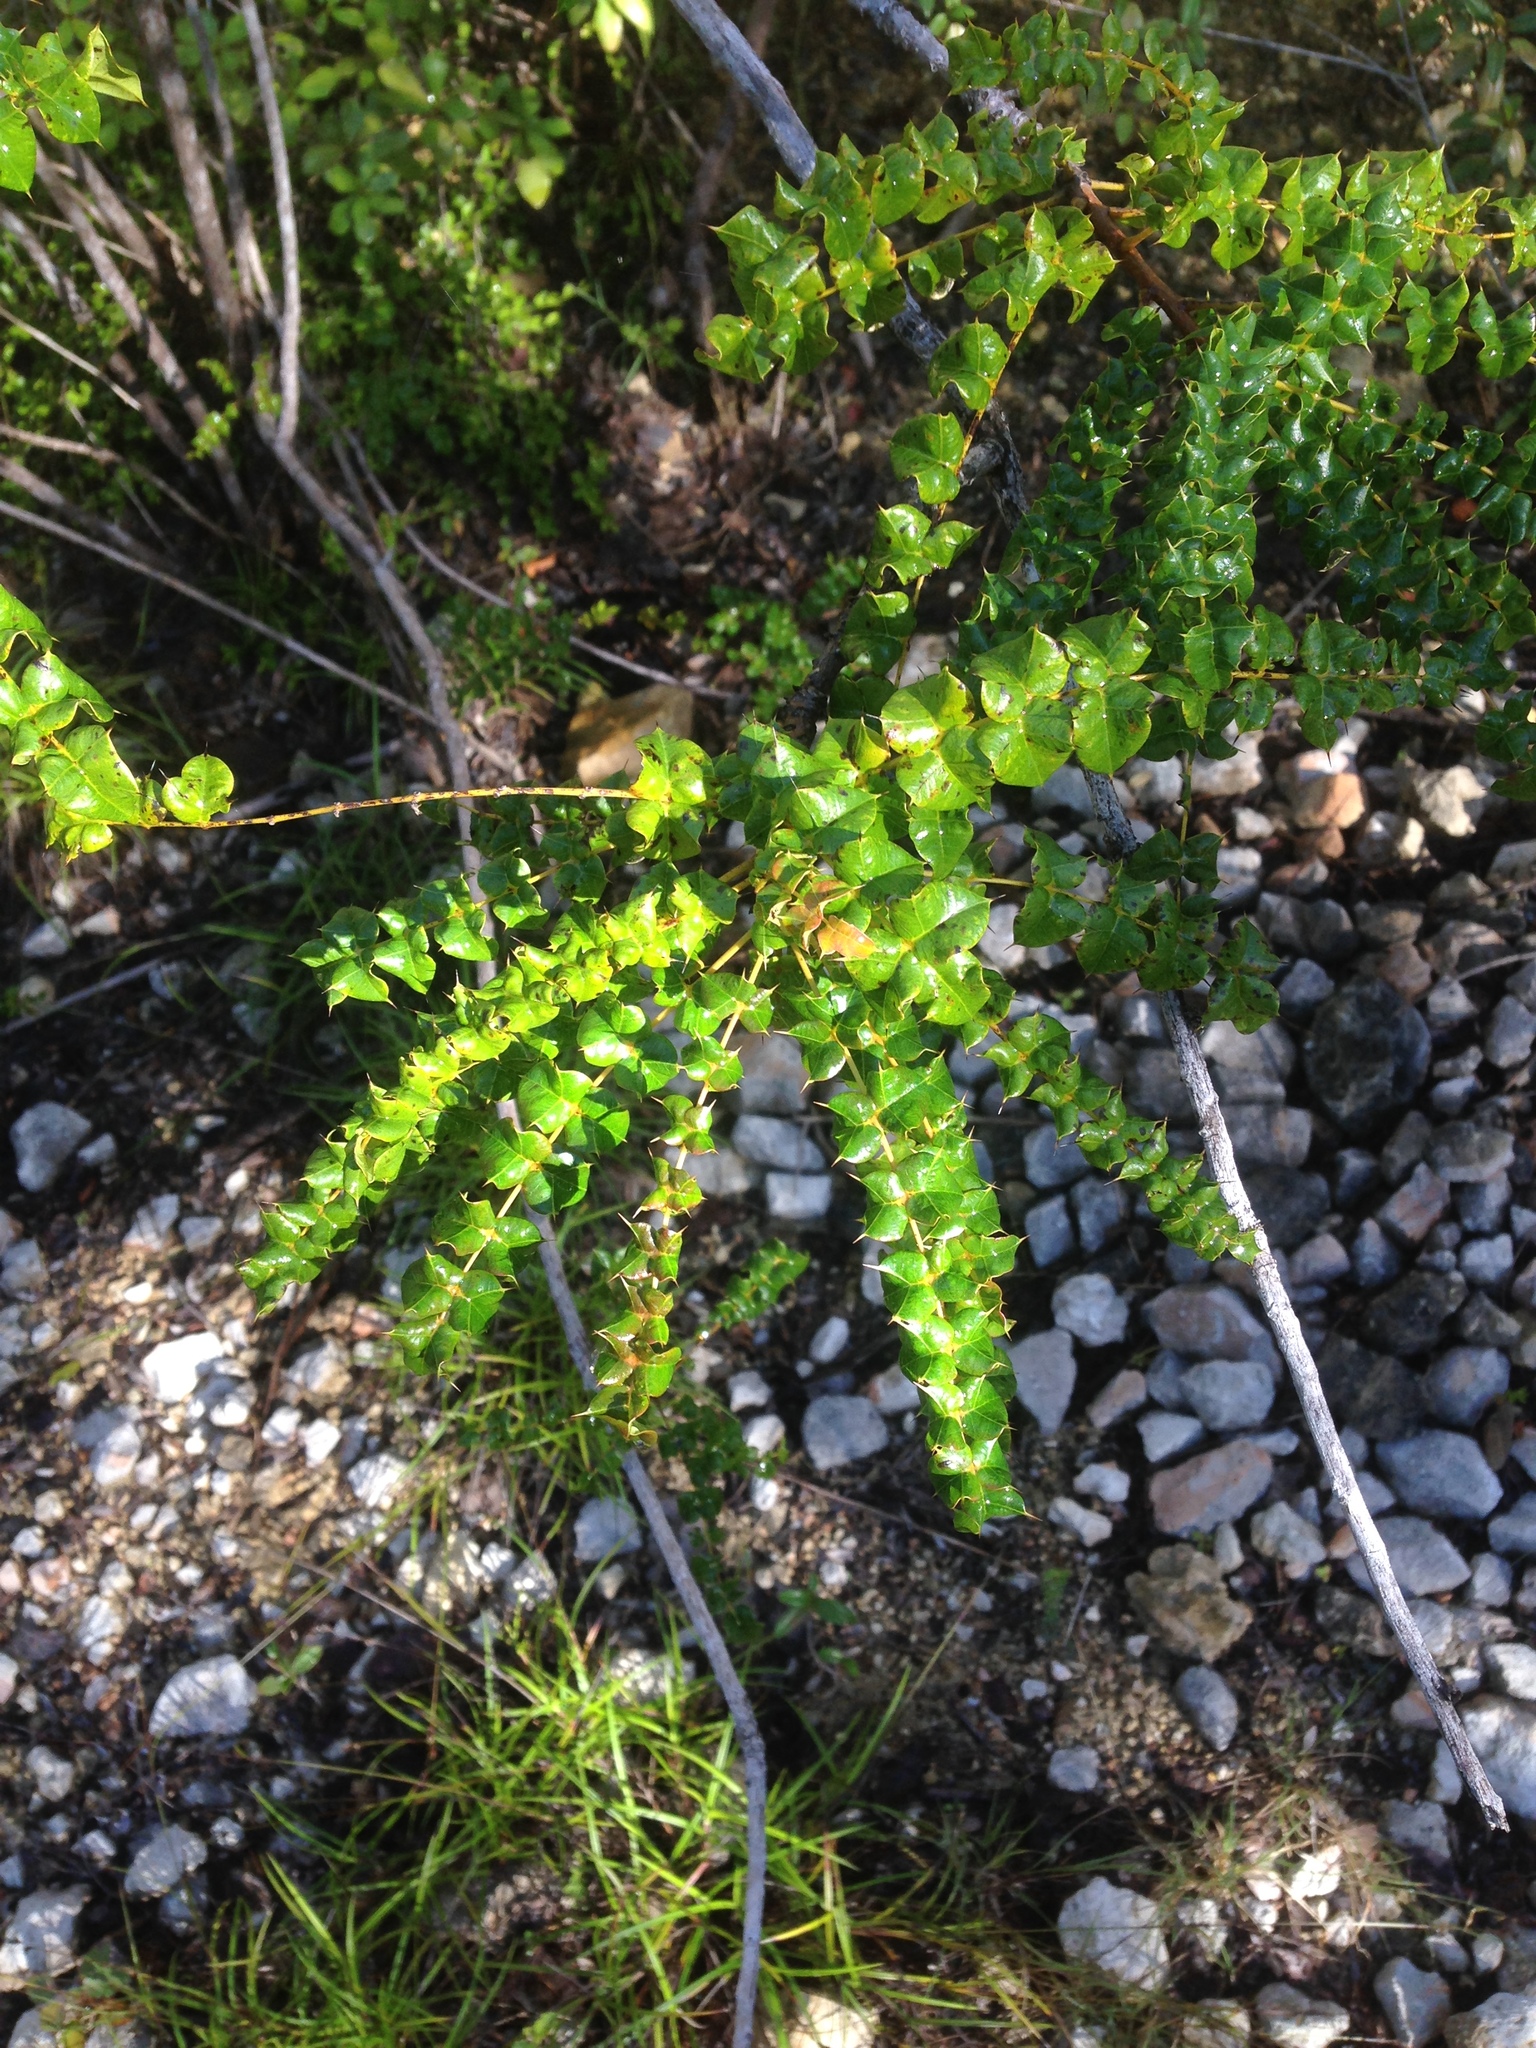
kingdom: Plantae
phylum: Tracheophyta
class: Magnoliopsida
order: Sapindales
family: Anacardiaceae
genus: Comocladia
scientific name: Comocladia dodonaea
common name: Poison ash
